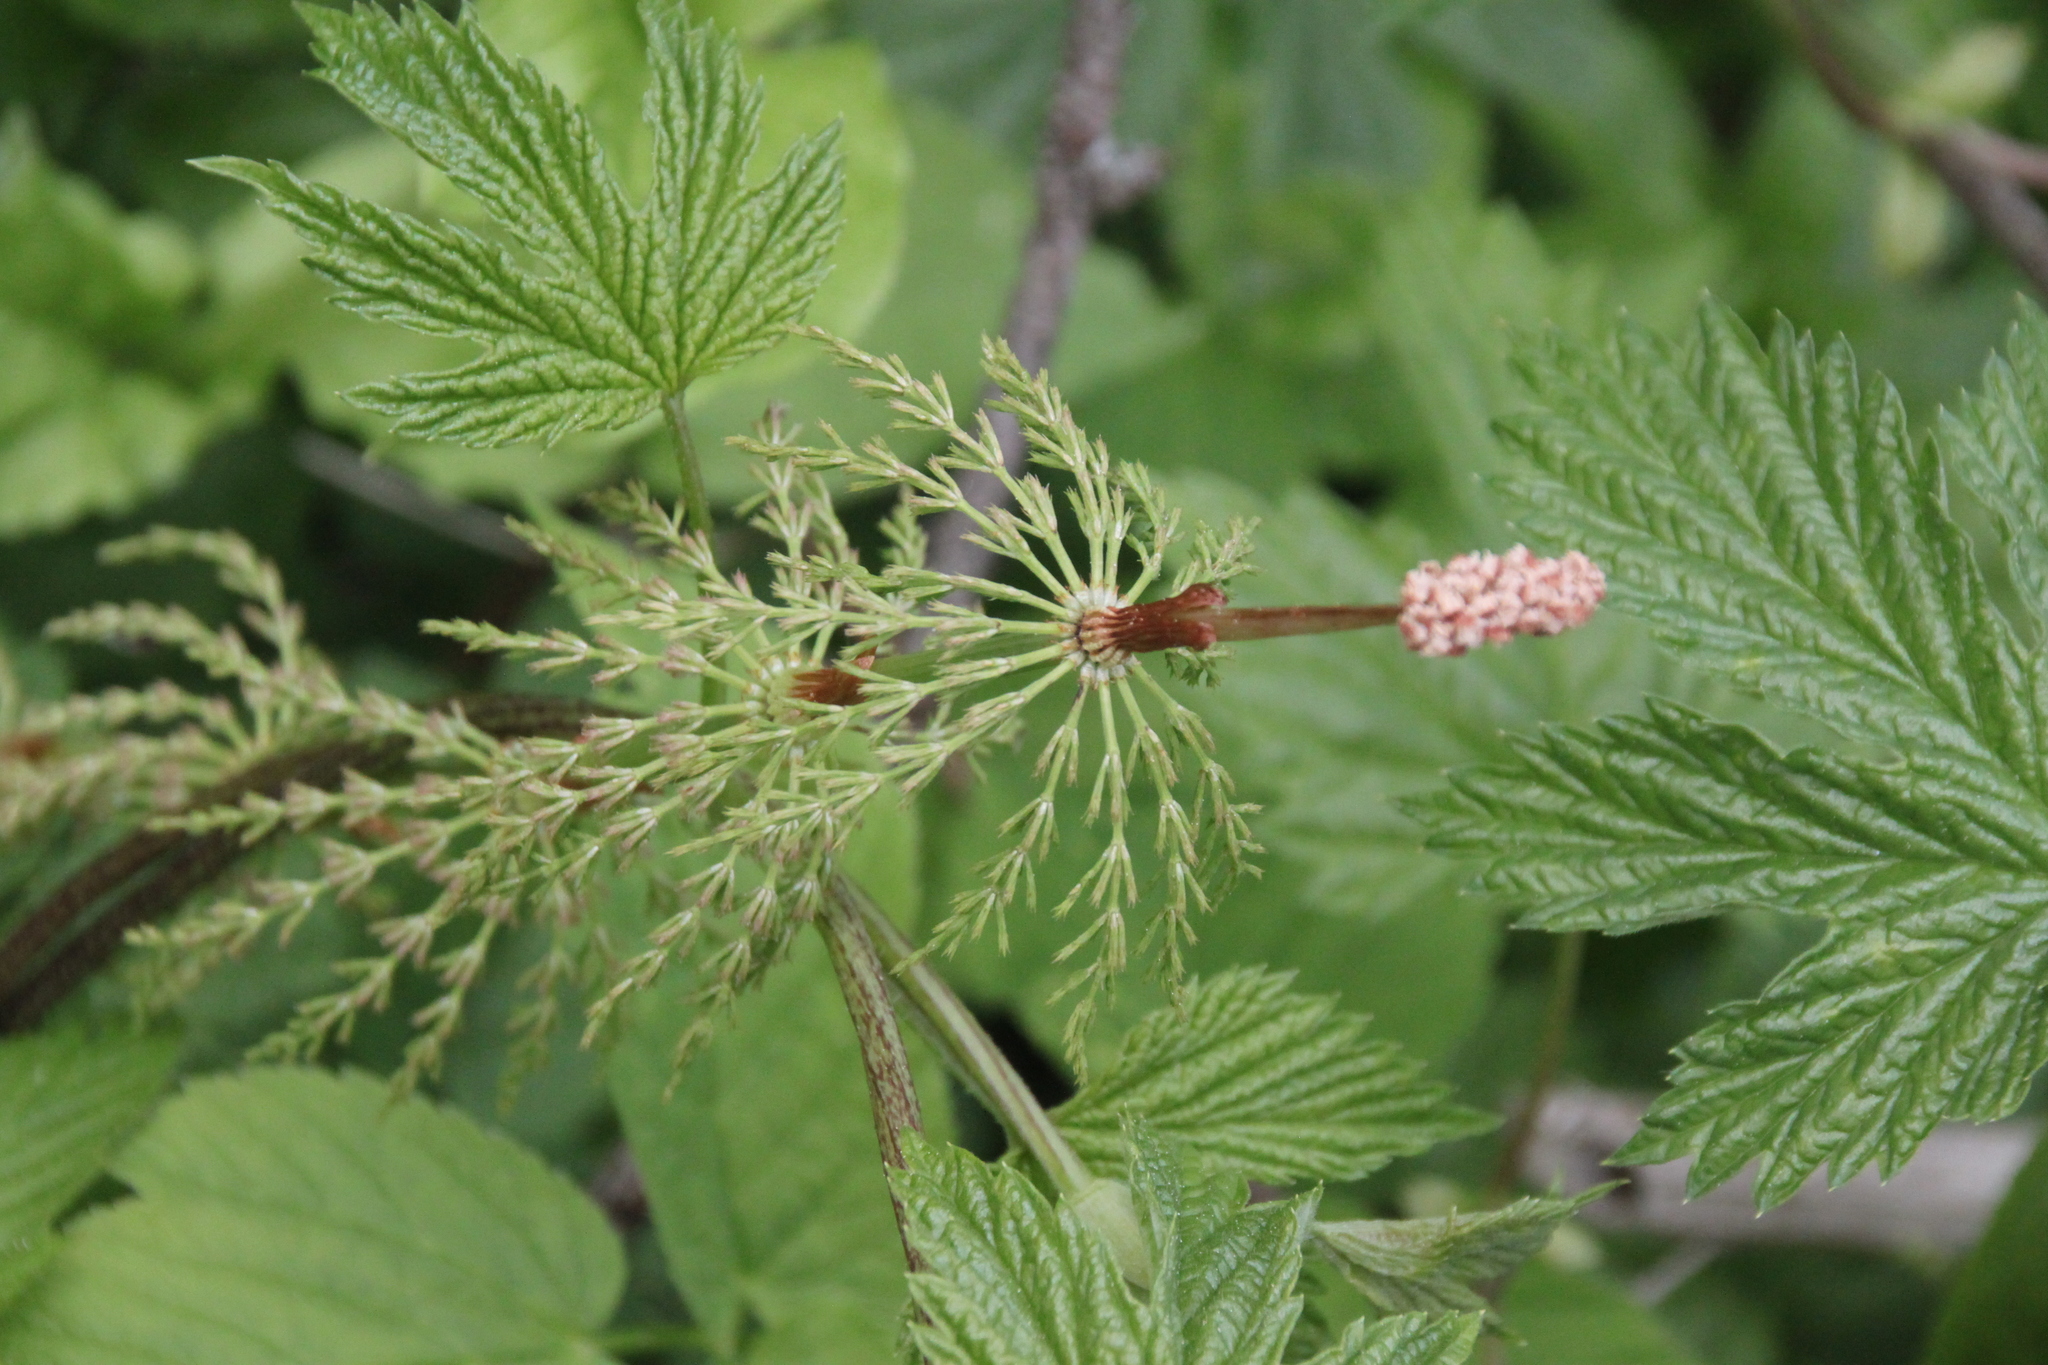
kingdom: Plantae
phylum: Tracheophyta
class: Polypodiopsida
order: Equisetales
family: Equisetaceae
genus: Equisetum
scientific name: Equisetum sylvaticum
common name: Wood horsetail
